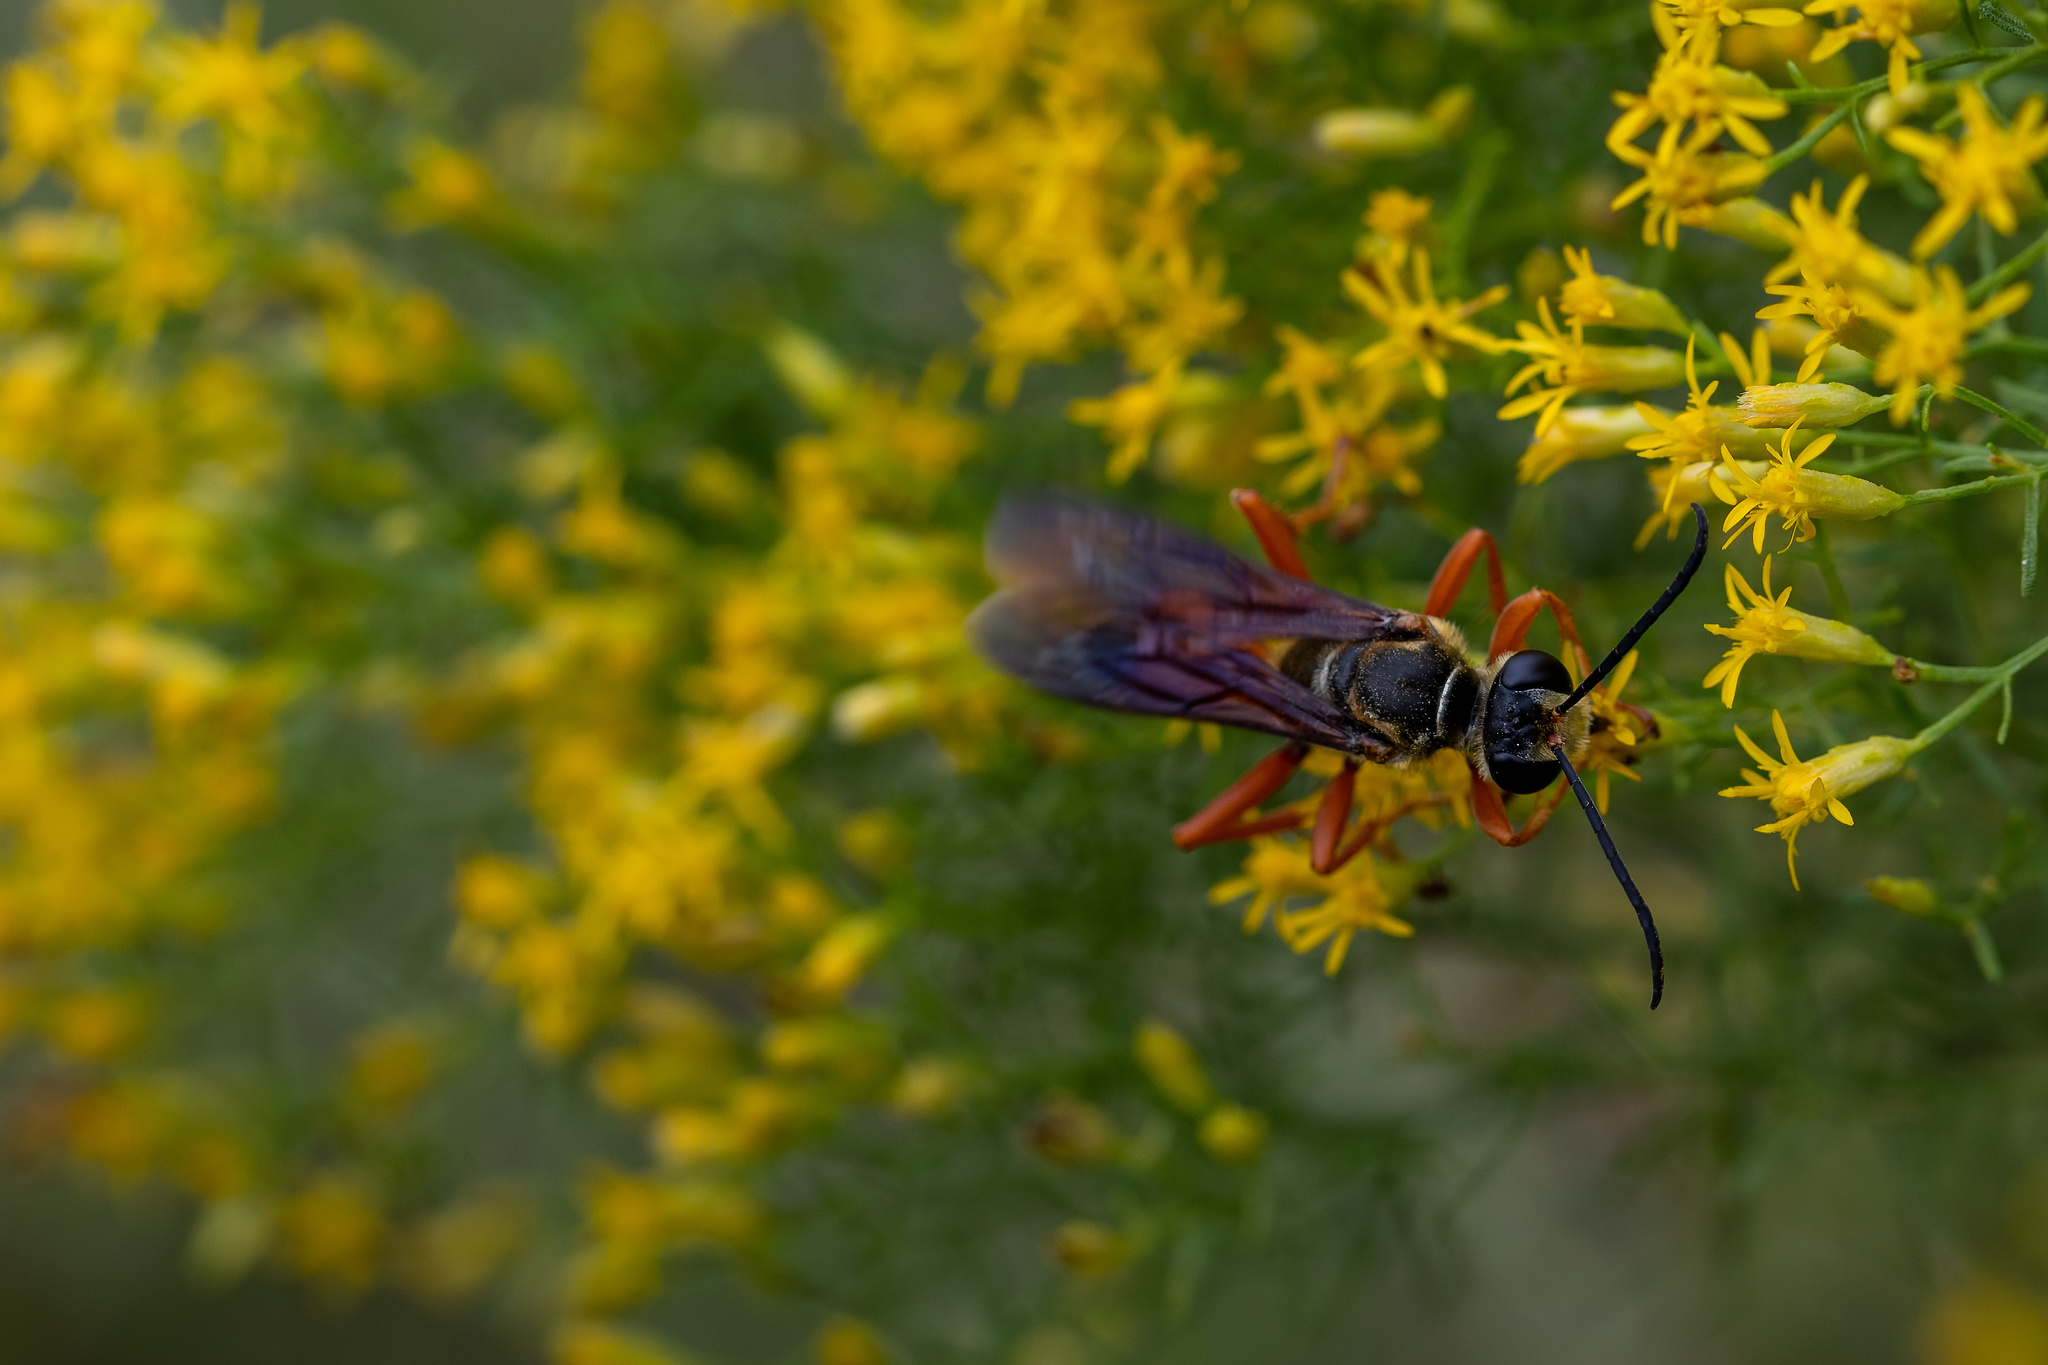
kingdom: Animalia
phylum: Arthropoda
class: Insecta
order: Hymenoptera
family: Sphecidae
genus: Sphex
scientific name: Sphex ichneumoneus
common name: Great golden digger wasp
